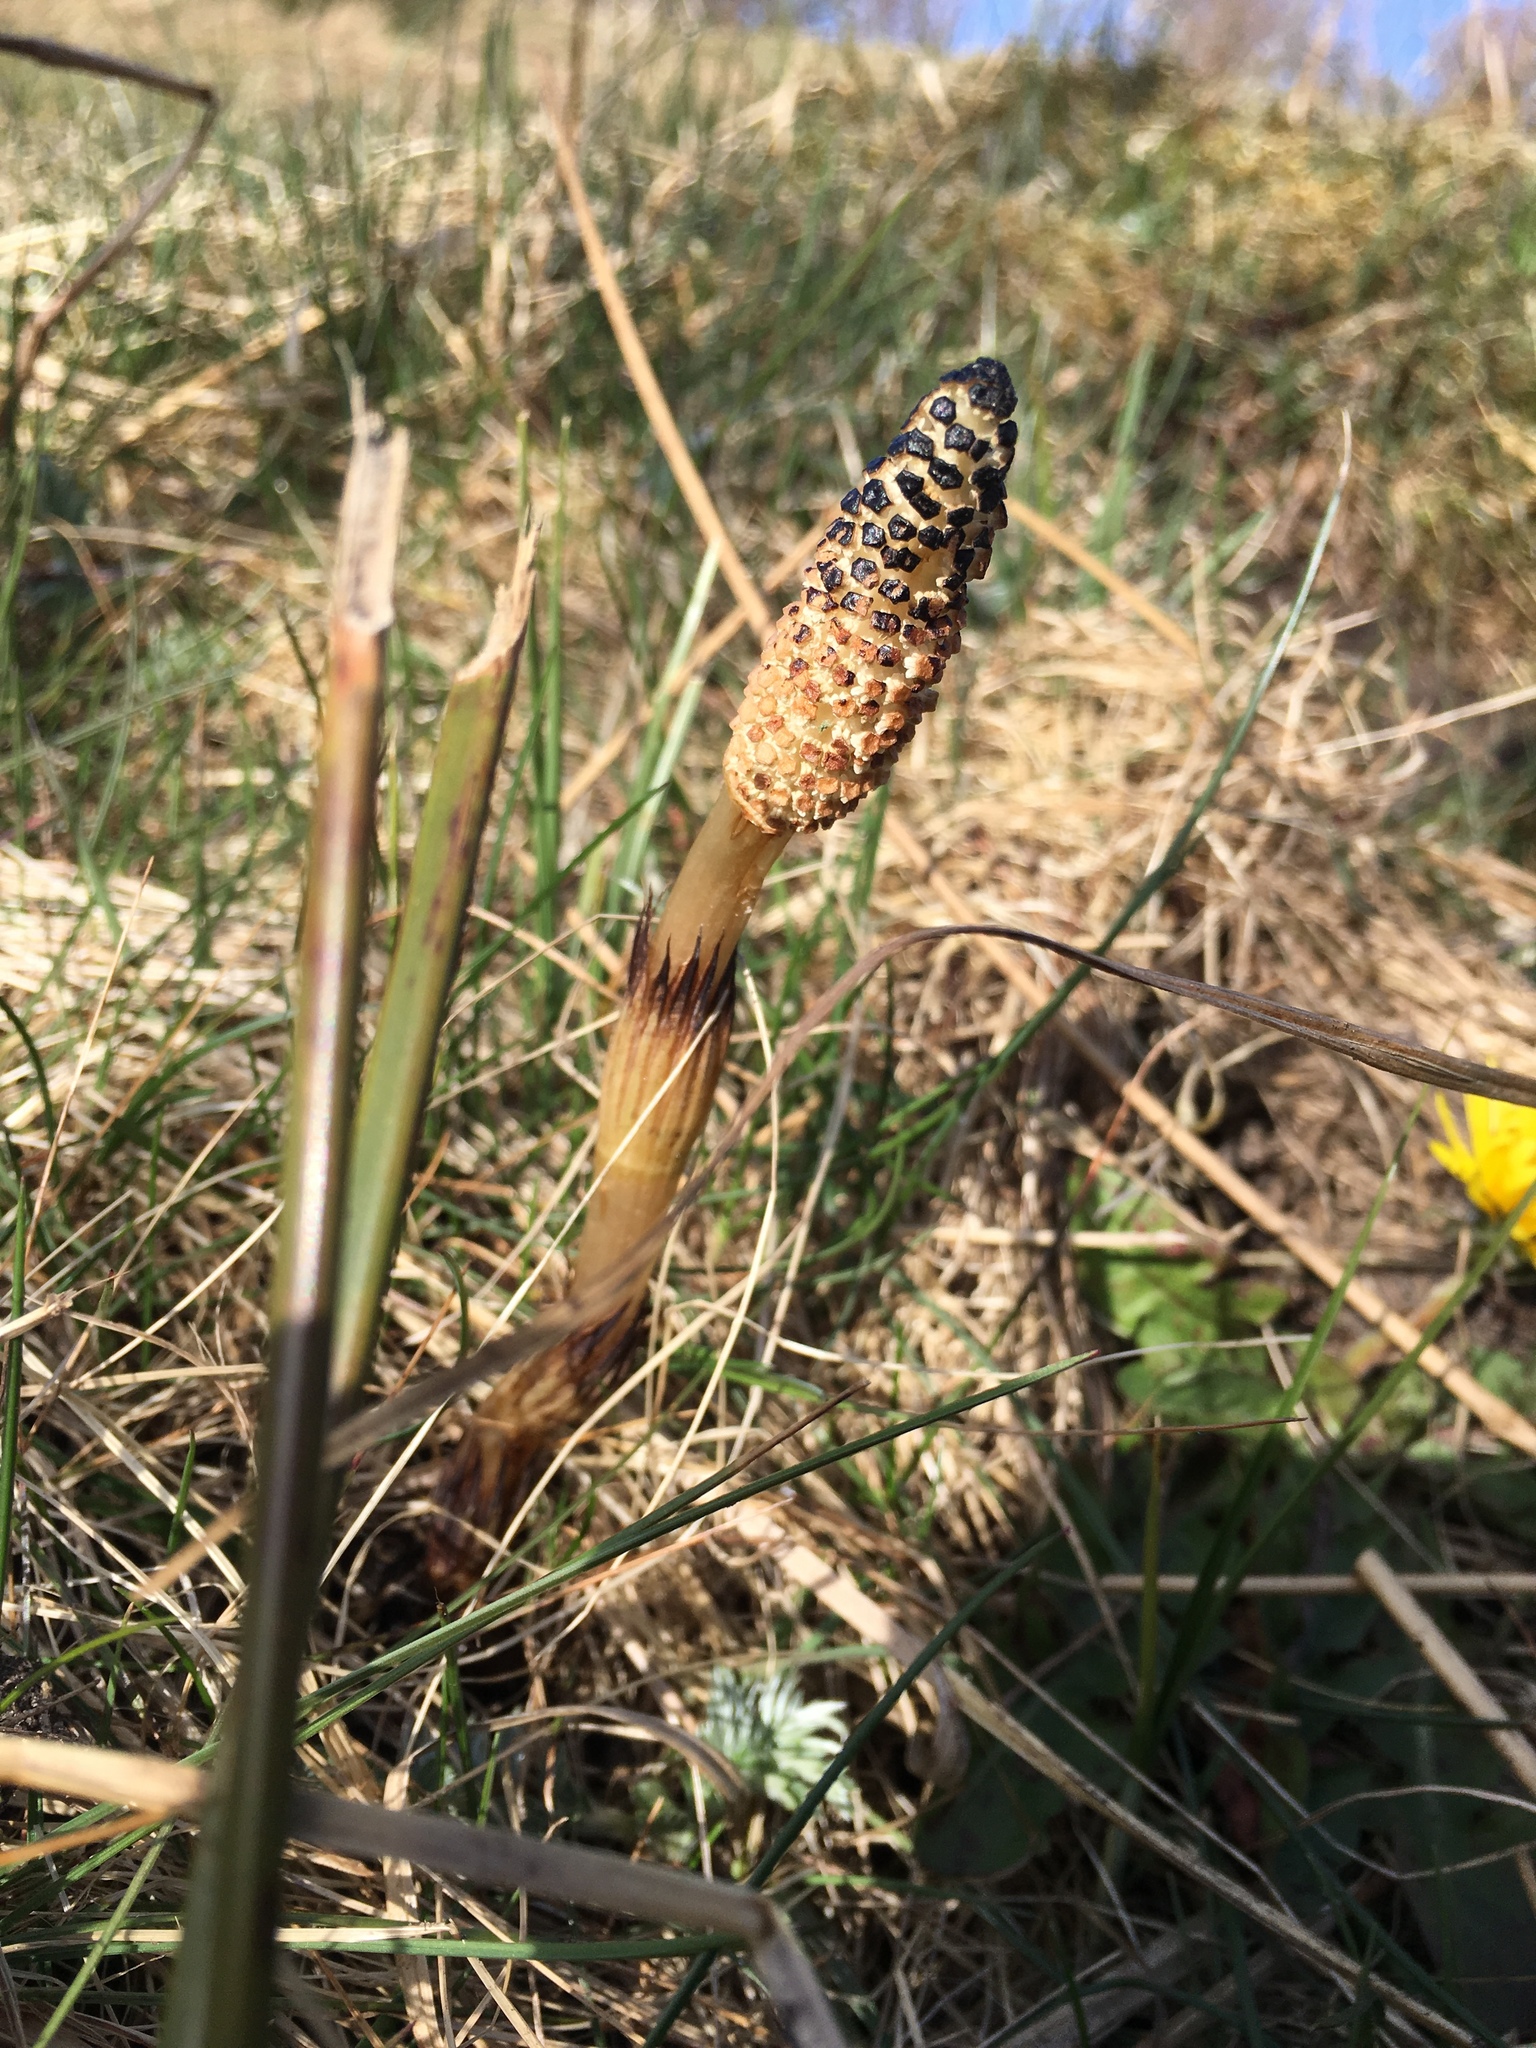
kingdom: Plantae
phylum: Tracheophyta
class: Polypodiopsida
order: Equisetales
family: Equisetaceae
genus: Equisetum
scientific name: Equisetum arvense
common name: Field horsetail
